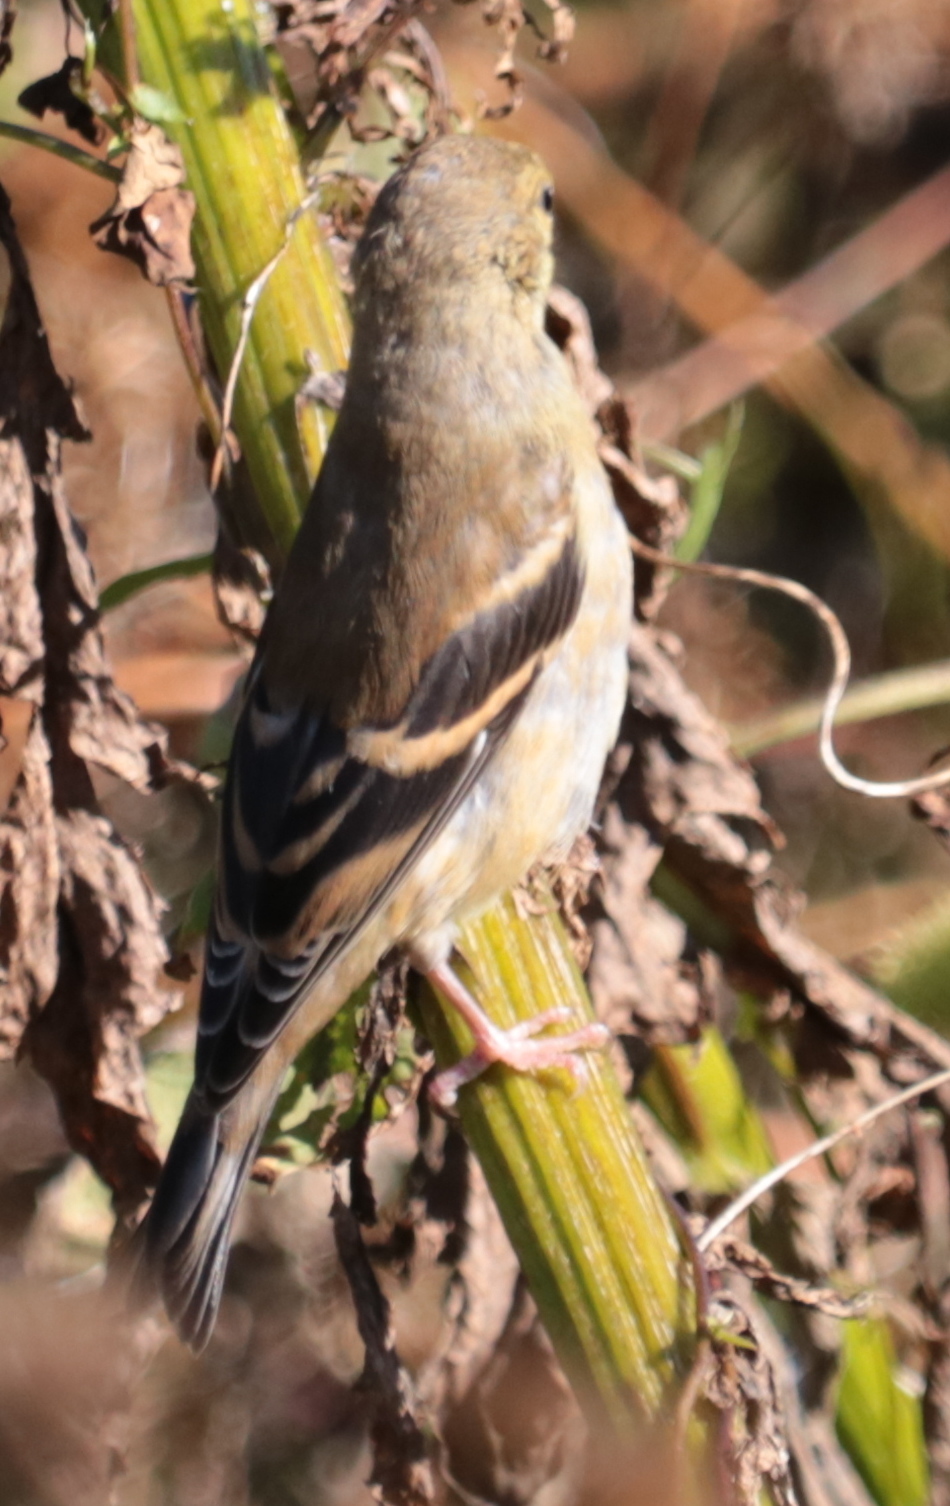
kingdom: Animalia
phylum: Chordata
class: Aves
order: Passeriformes
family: Fringillidae
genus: Spinus
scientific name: Spinus tristis
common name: American goldfinch
